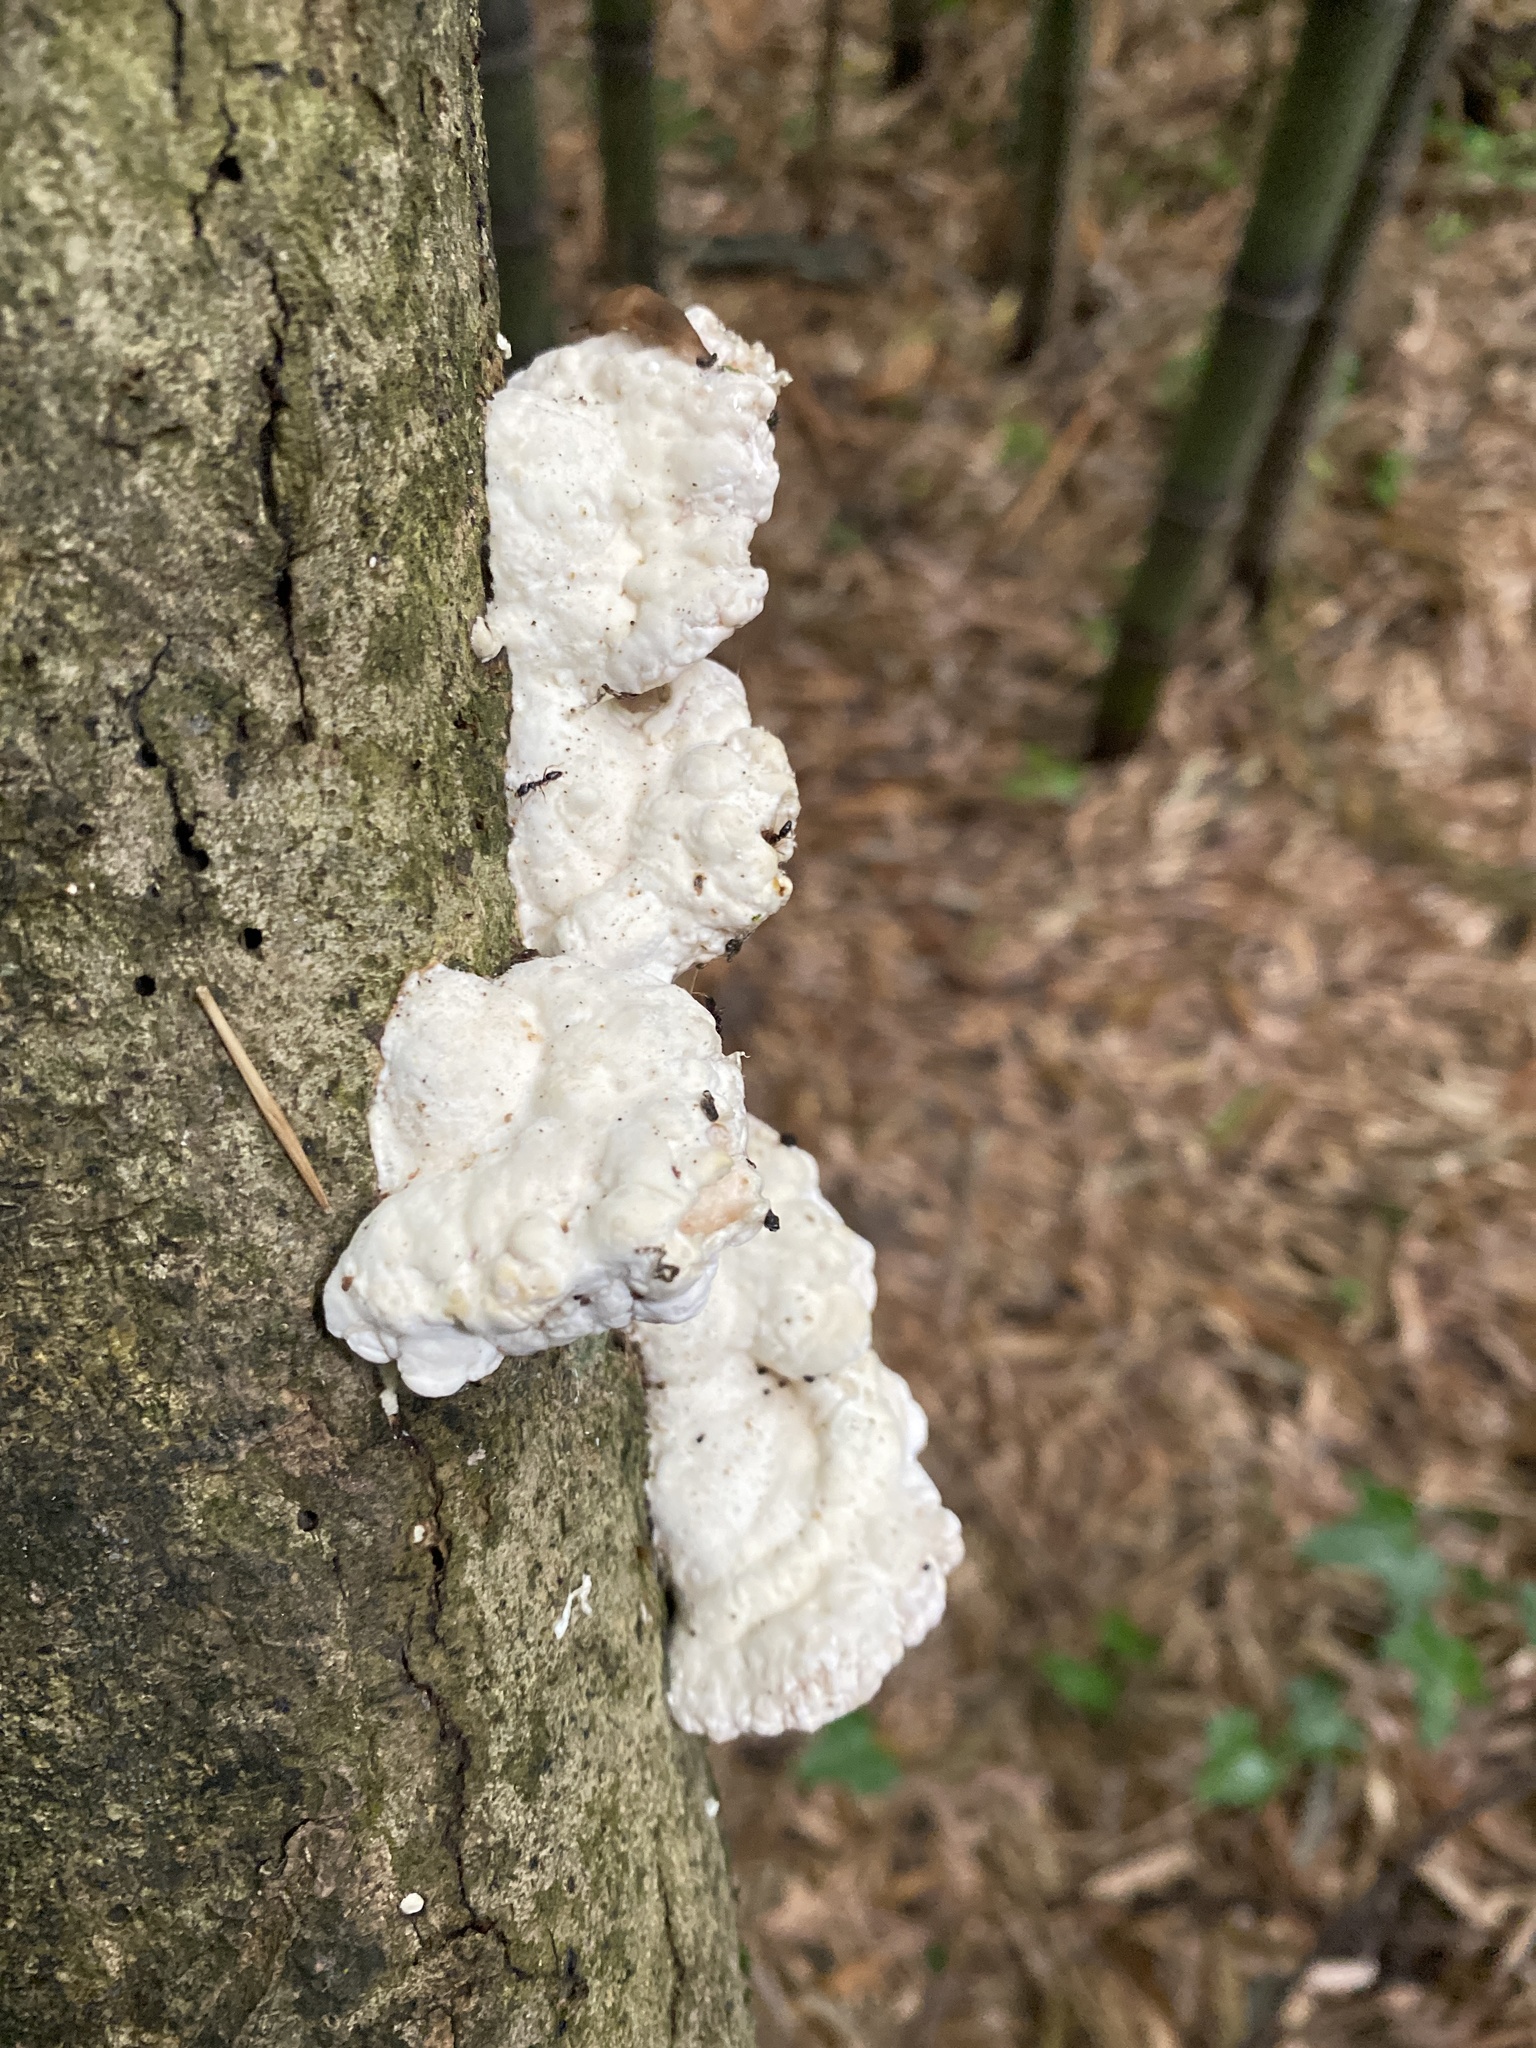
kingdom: Fungi
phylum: Basidiomycota
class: Agaricomycetes
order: Polyporales
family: Polyporaceae
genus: Trametes
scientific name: Trametes gibbosa
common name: Lumpy bracket
